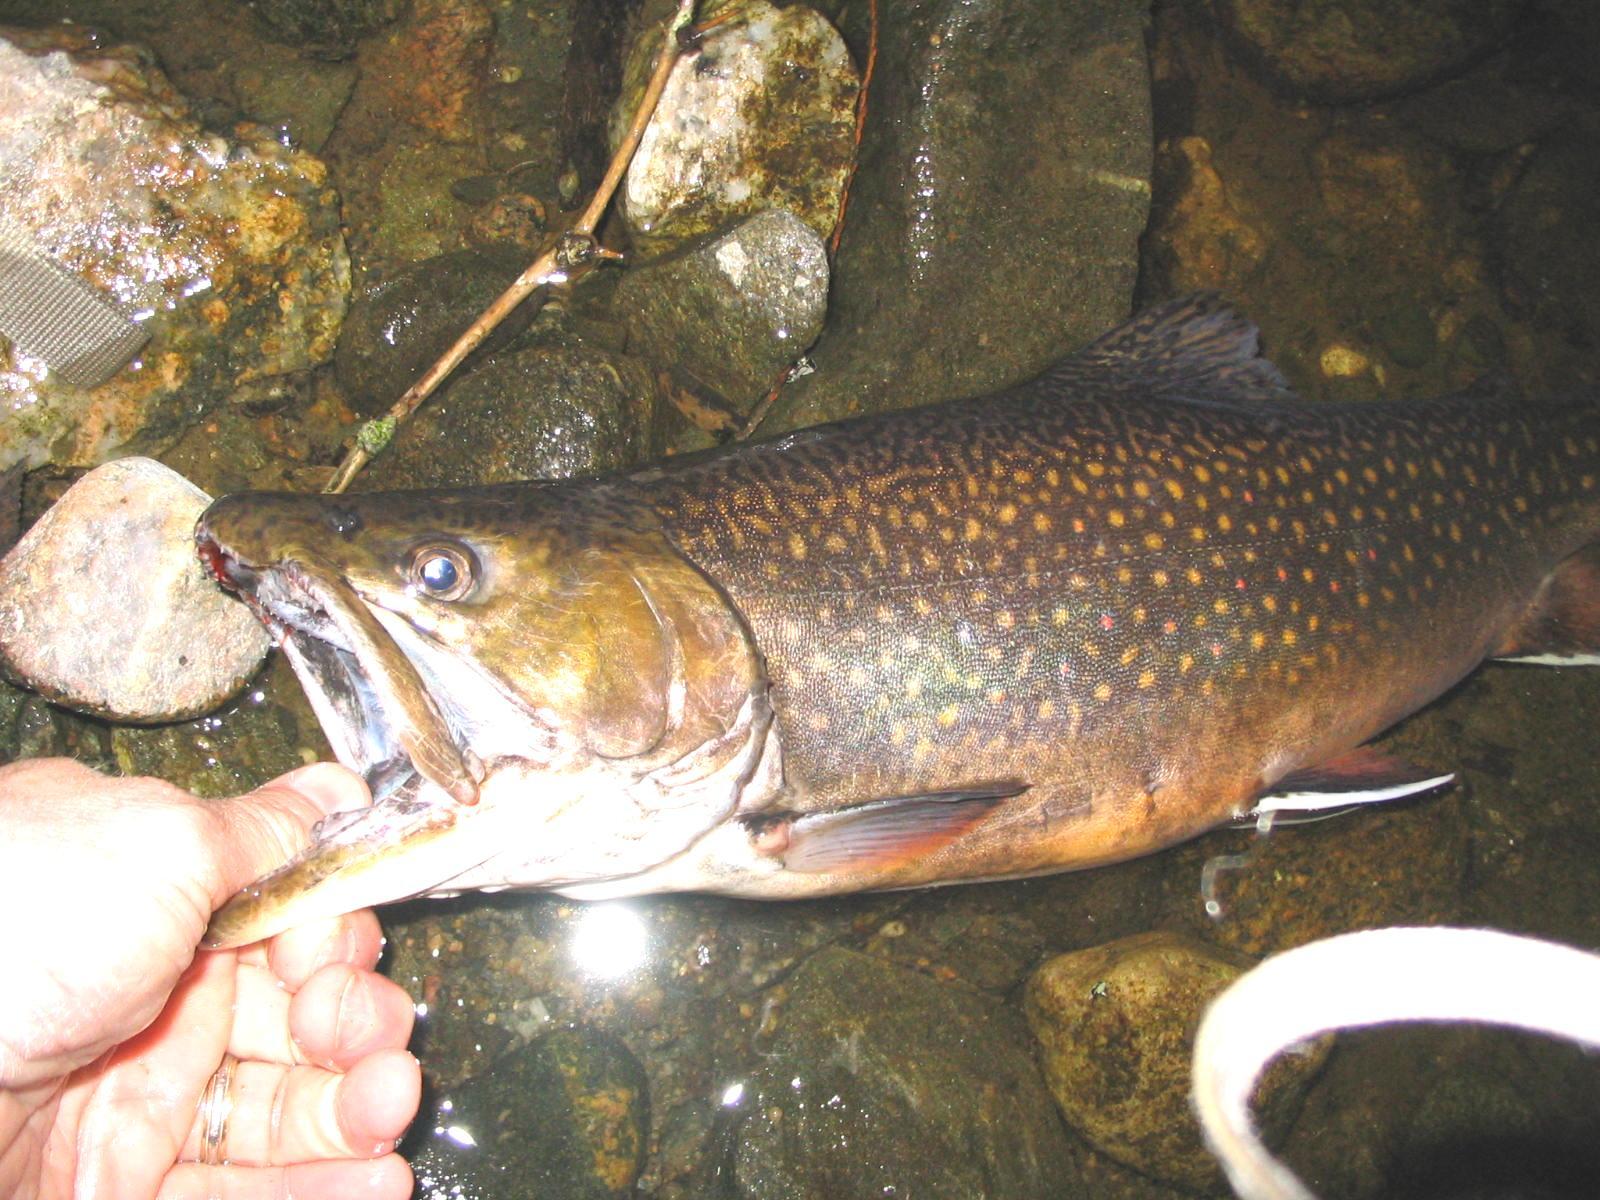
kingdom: Animalia
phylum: Chordata
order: Salmoniformes
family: Salmonidae
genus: Salvelinus
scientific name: Salvelinus fontinalis
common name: Brook trout
